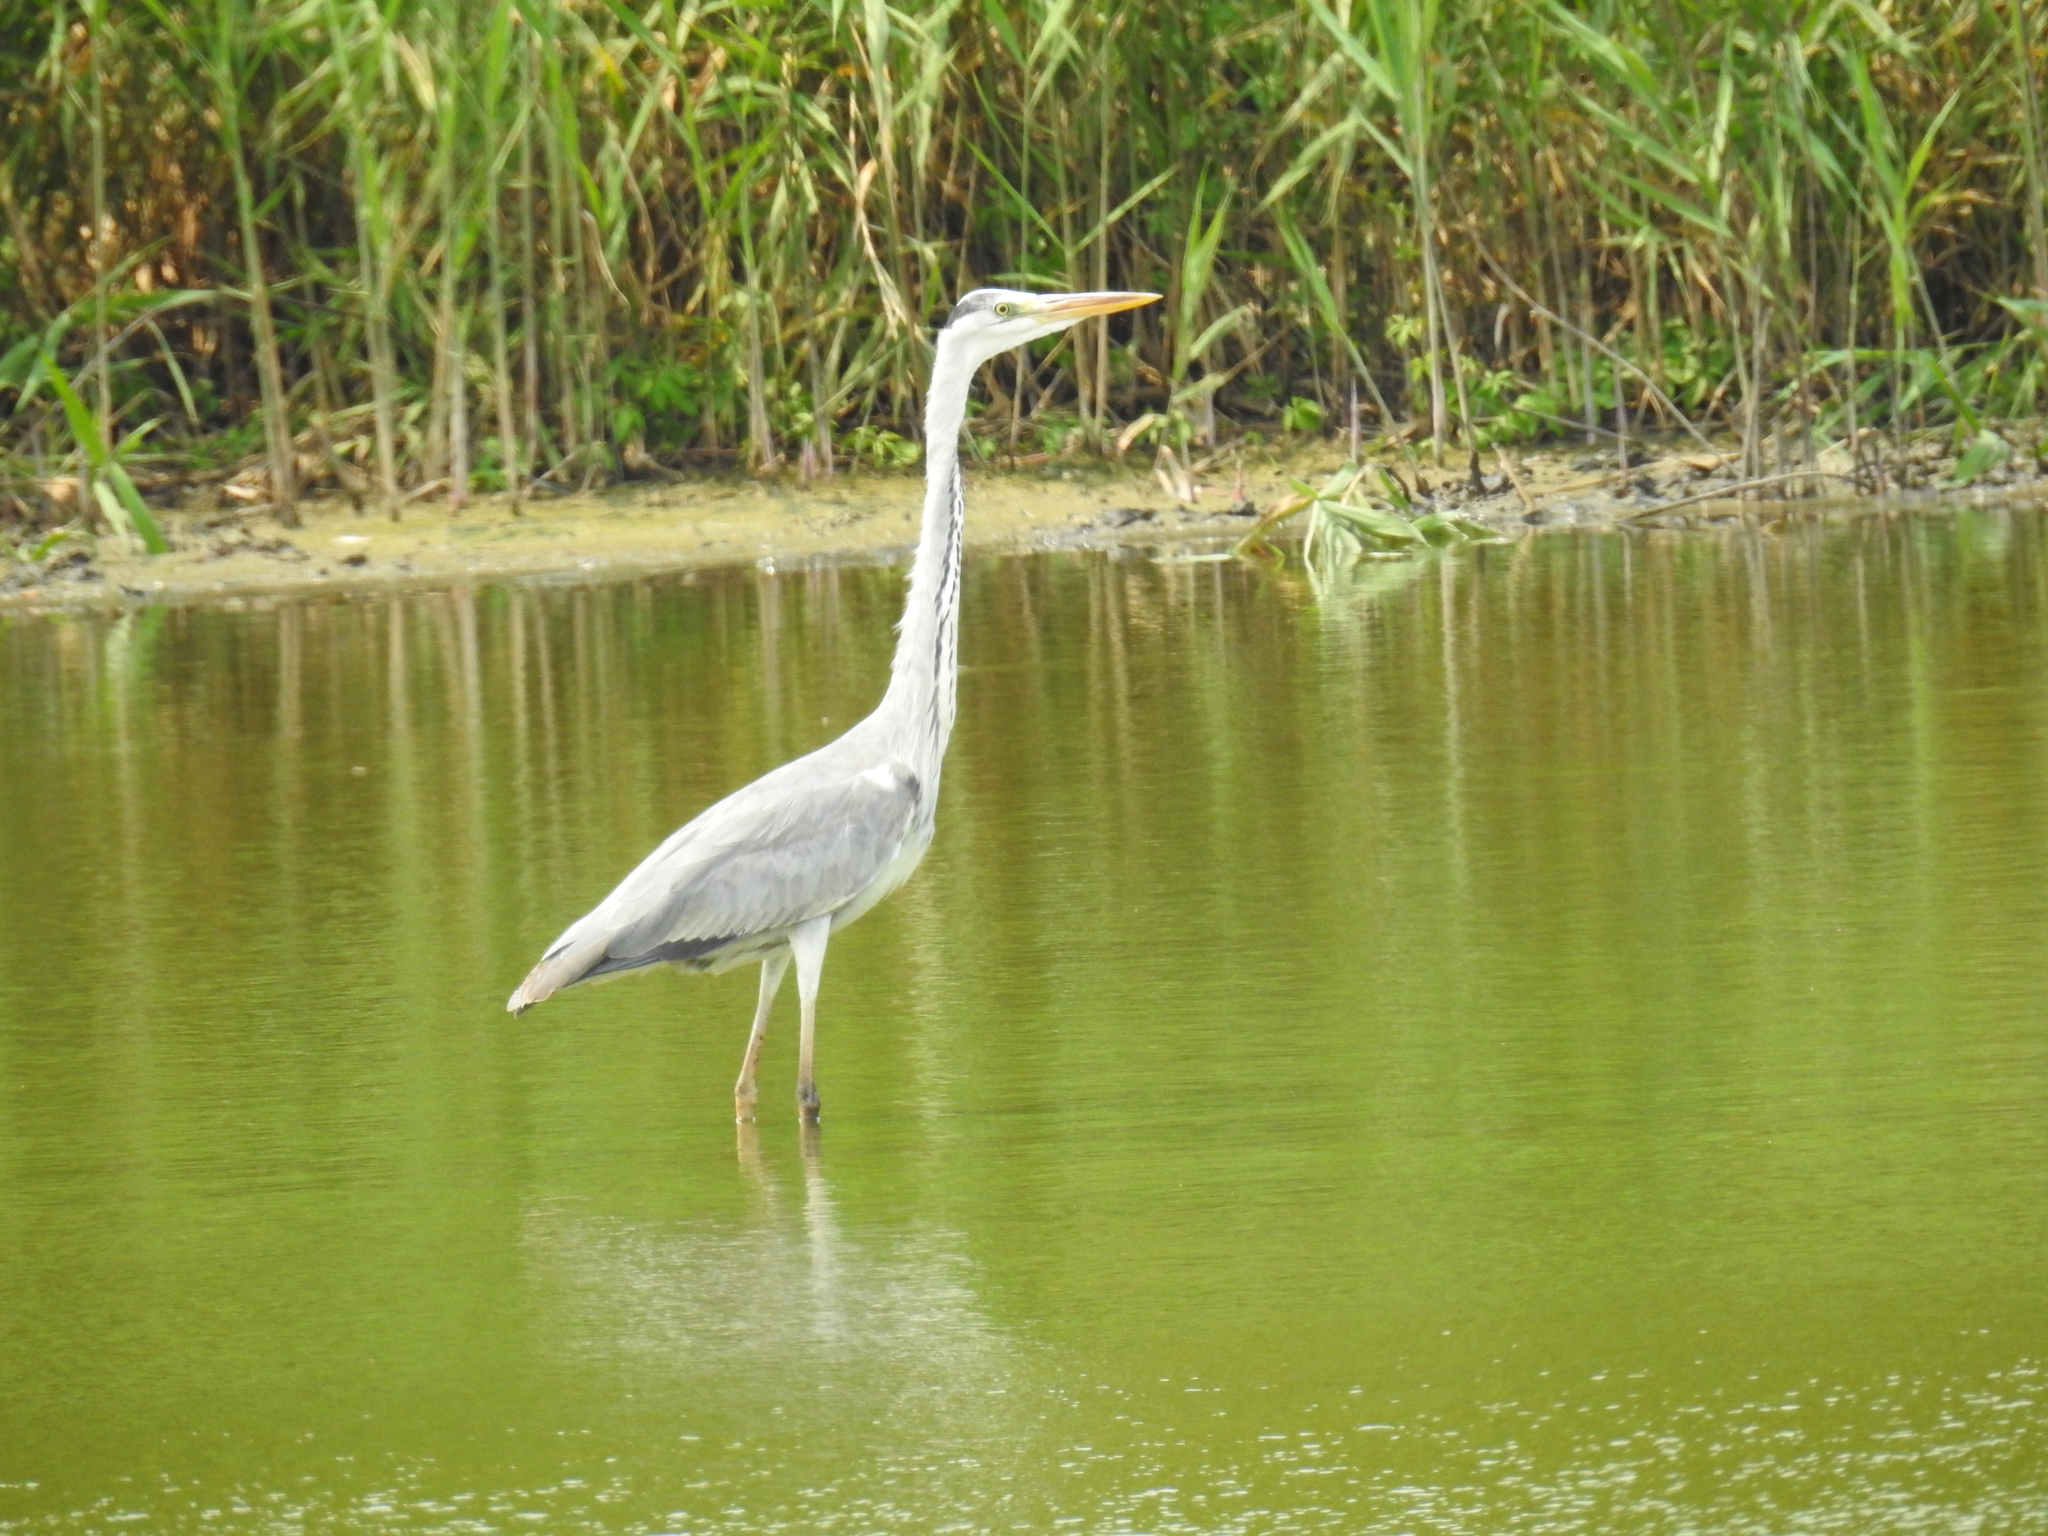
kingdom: Animalia
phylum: Chordata
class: Aves
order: Pelecaniformes
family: Ardeidae
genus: Ardea
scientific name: Ardea cinerea
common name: Grey heron
